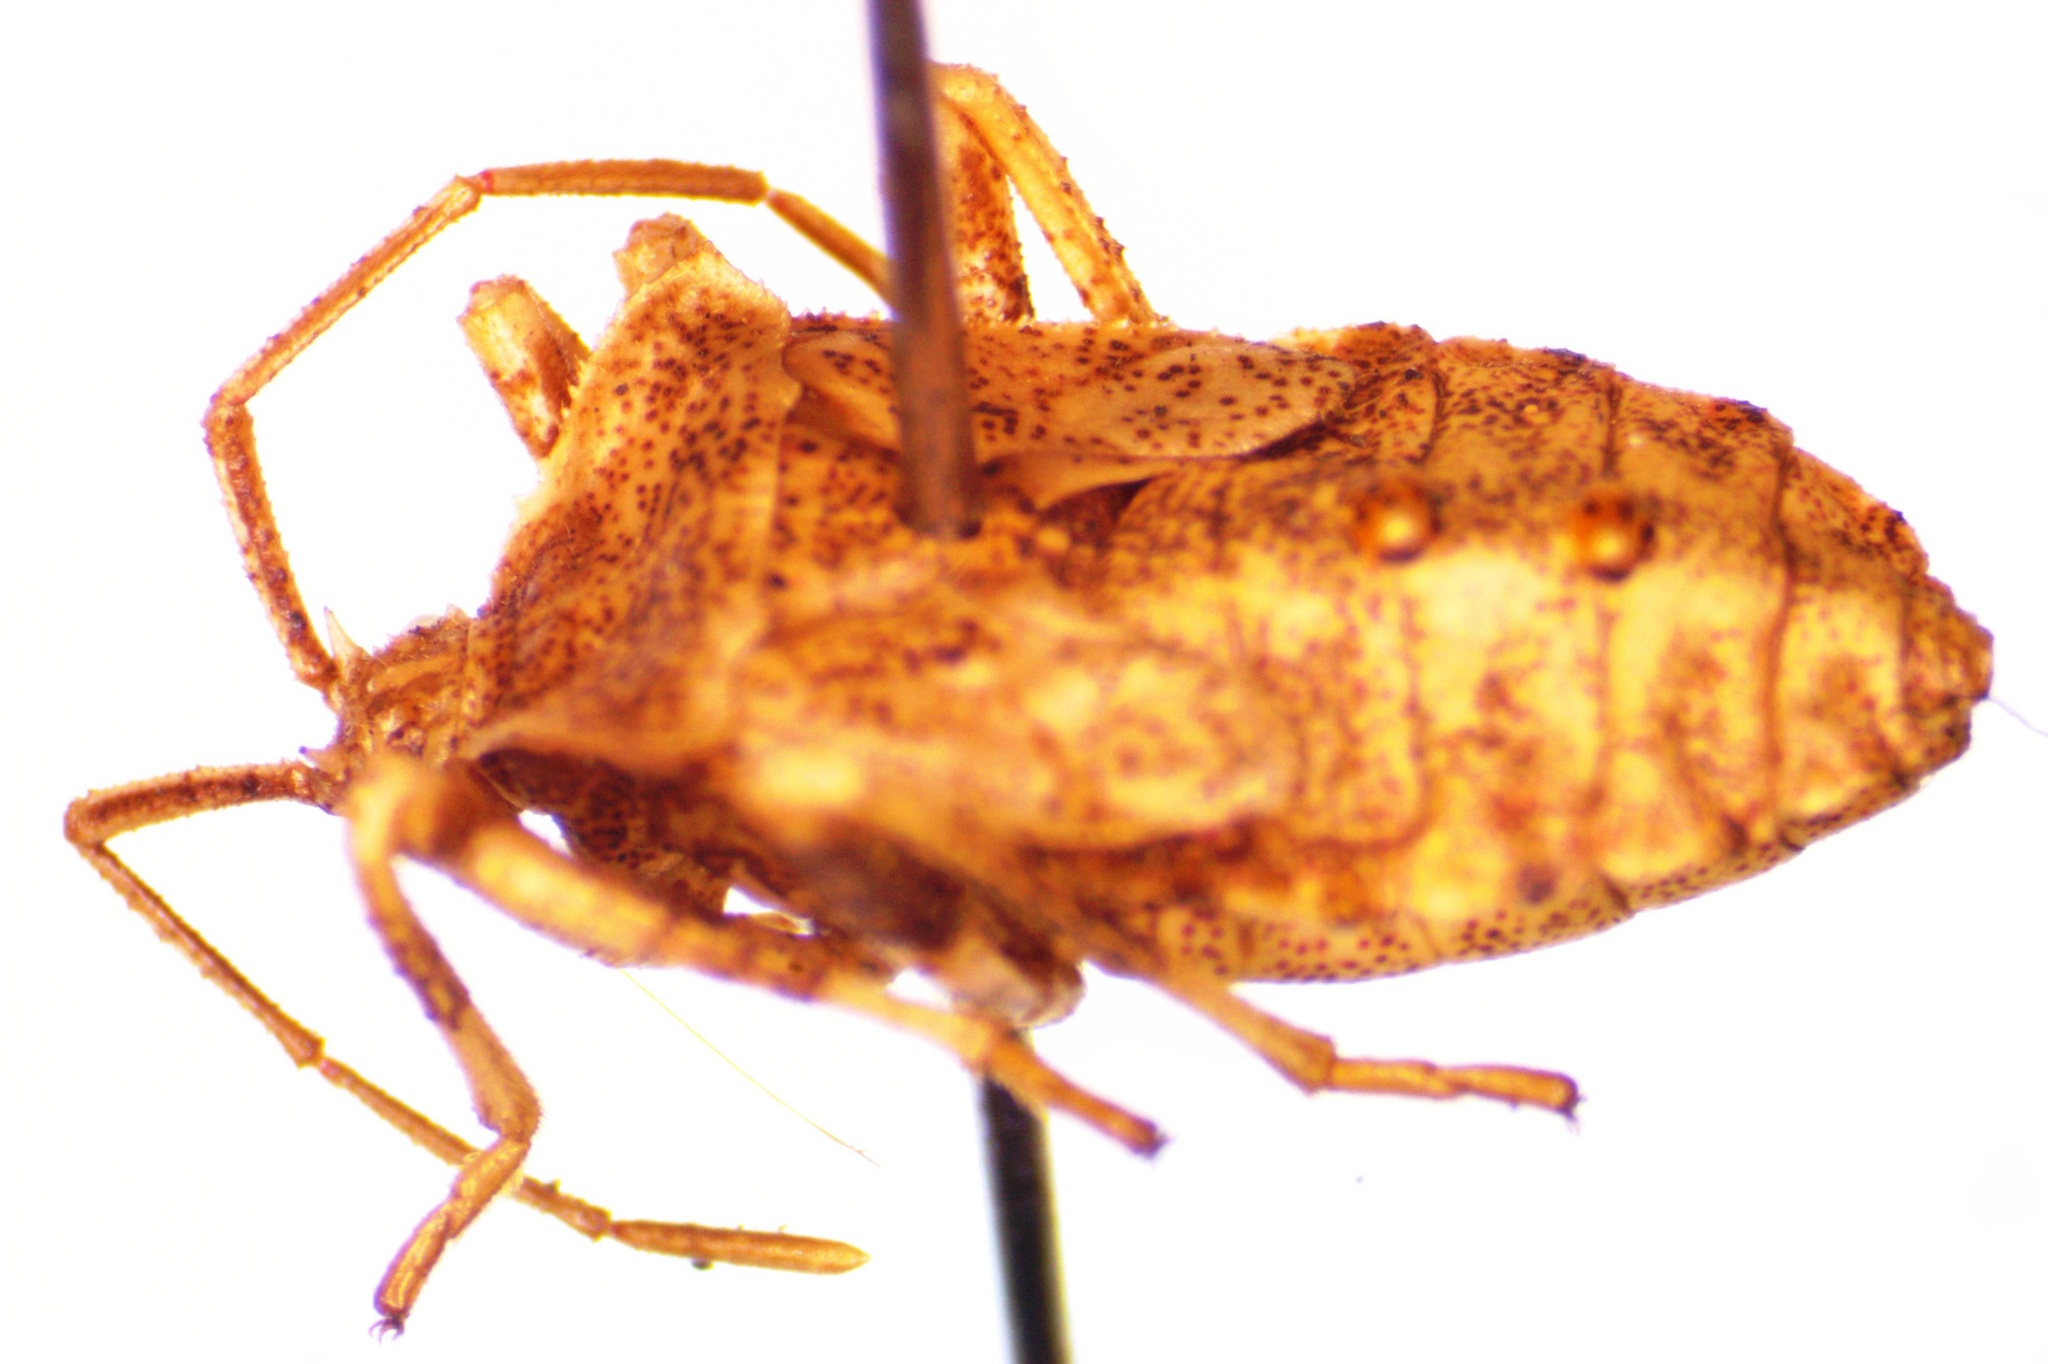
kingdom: Animalia
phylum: Arthropoda
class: Insecta
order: Hemiptera
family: Coreidae
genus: Anasa
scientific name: Anasa scorbutica
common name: Squash bug
